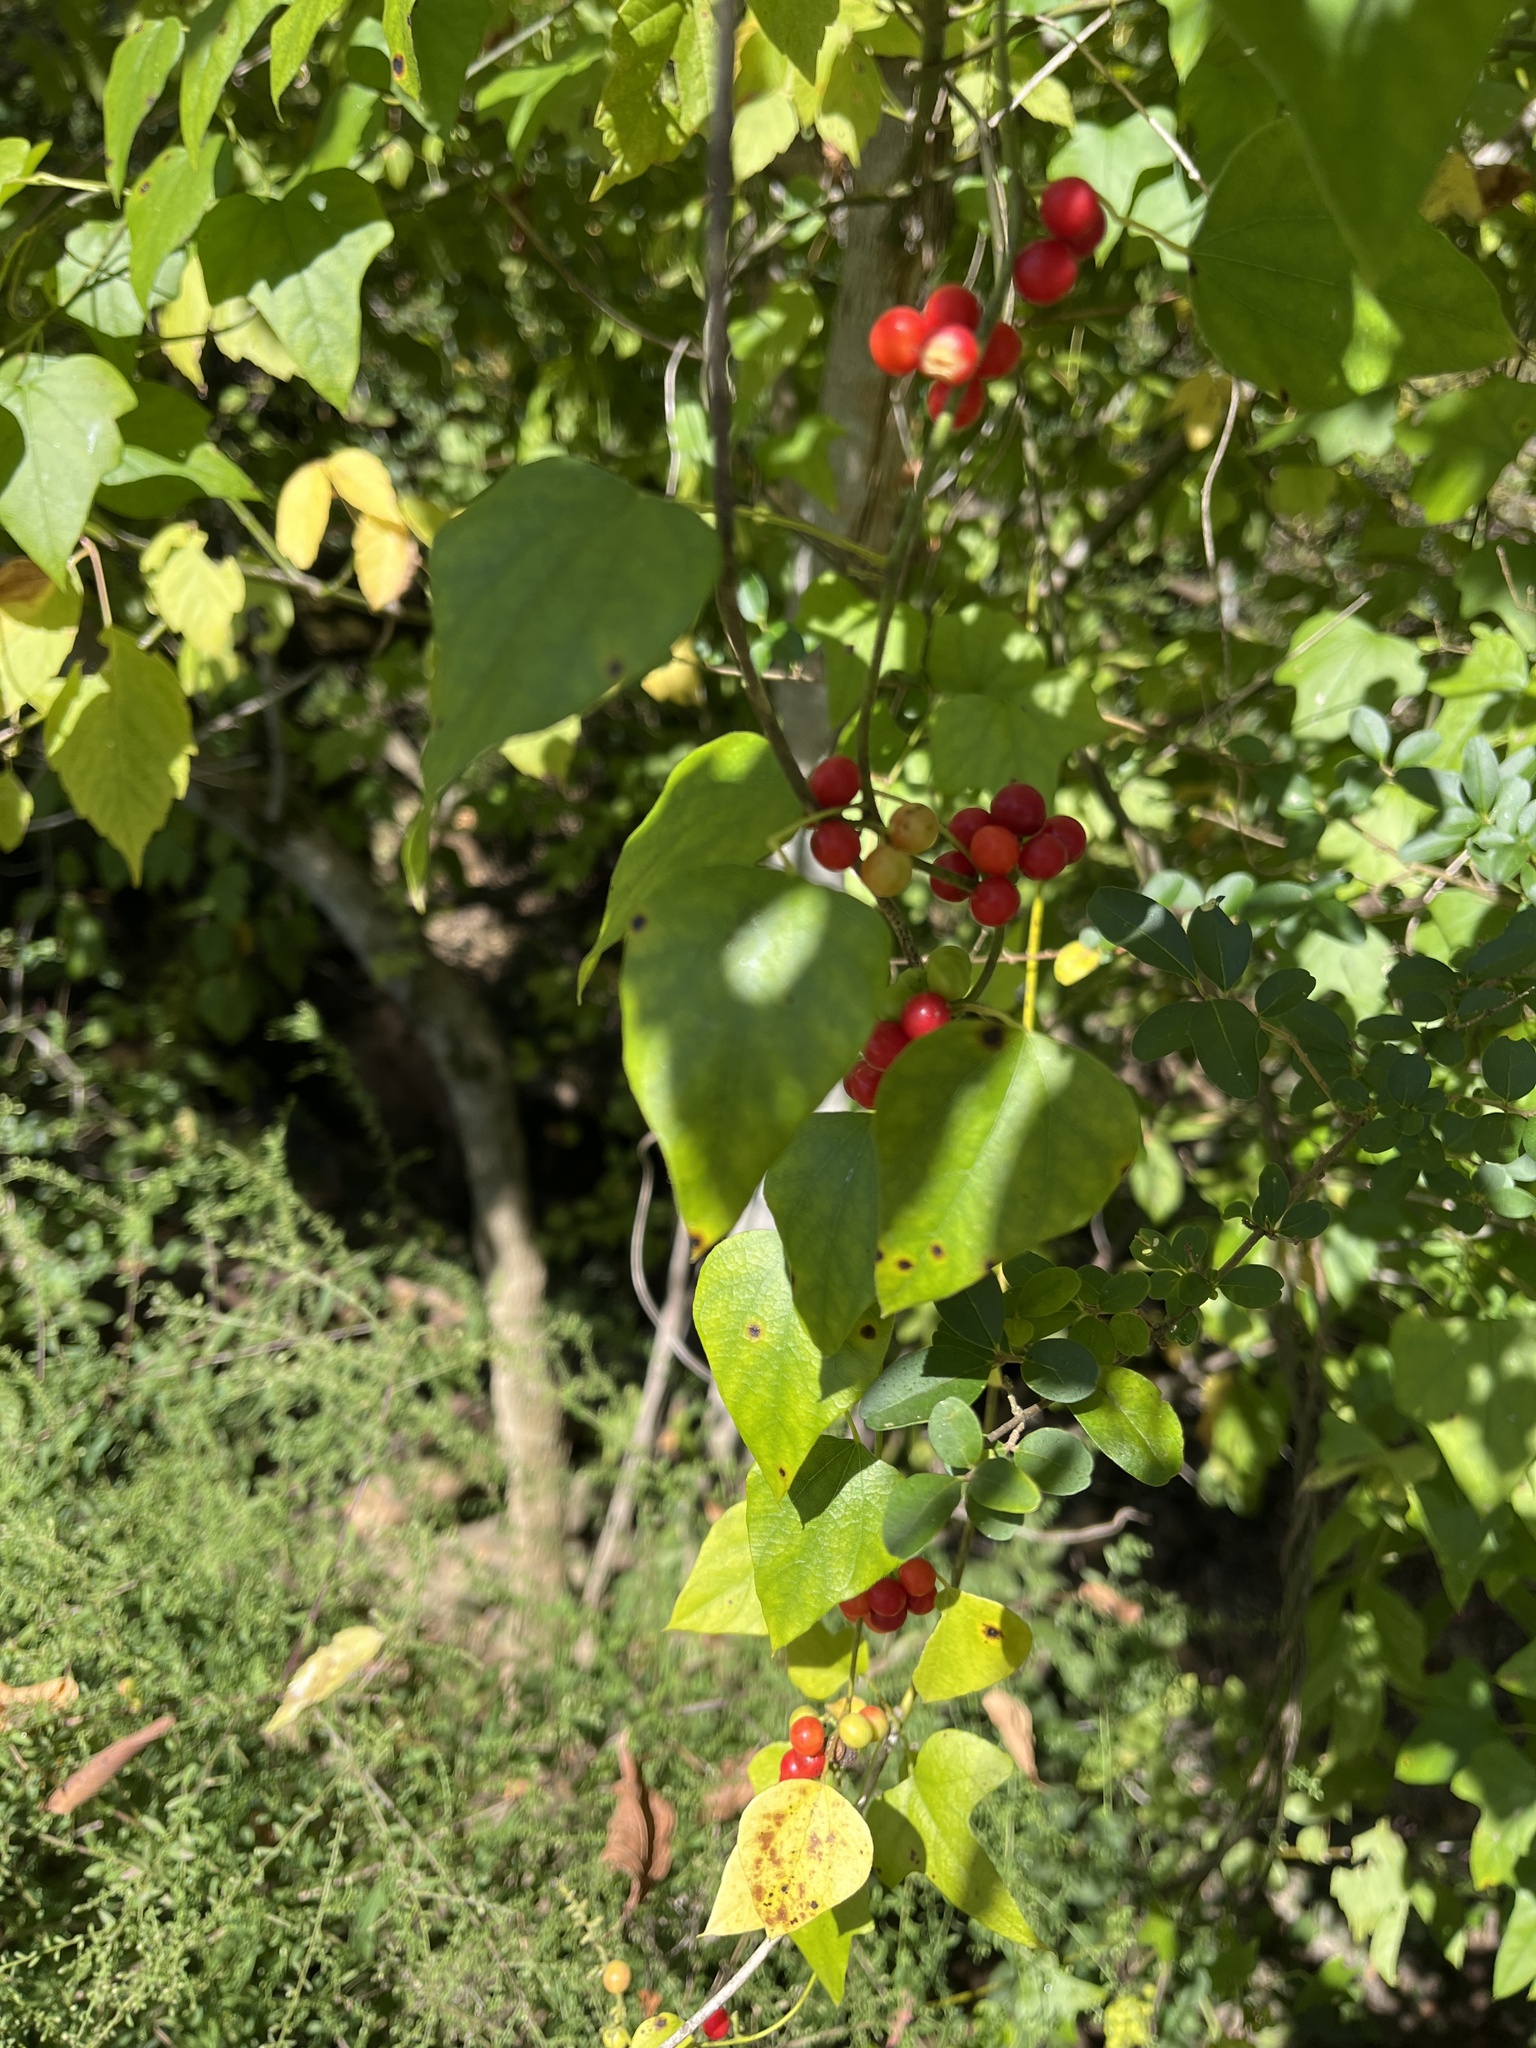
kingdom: Plantae
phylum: Tracheophyta
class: Magnoliopsida
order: Ranunculales
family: Menispermaceae
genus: Cocculus
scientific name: Cocculus carolinus
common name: Carolina moonseed
